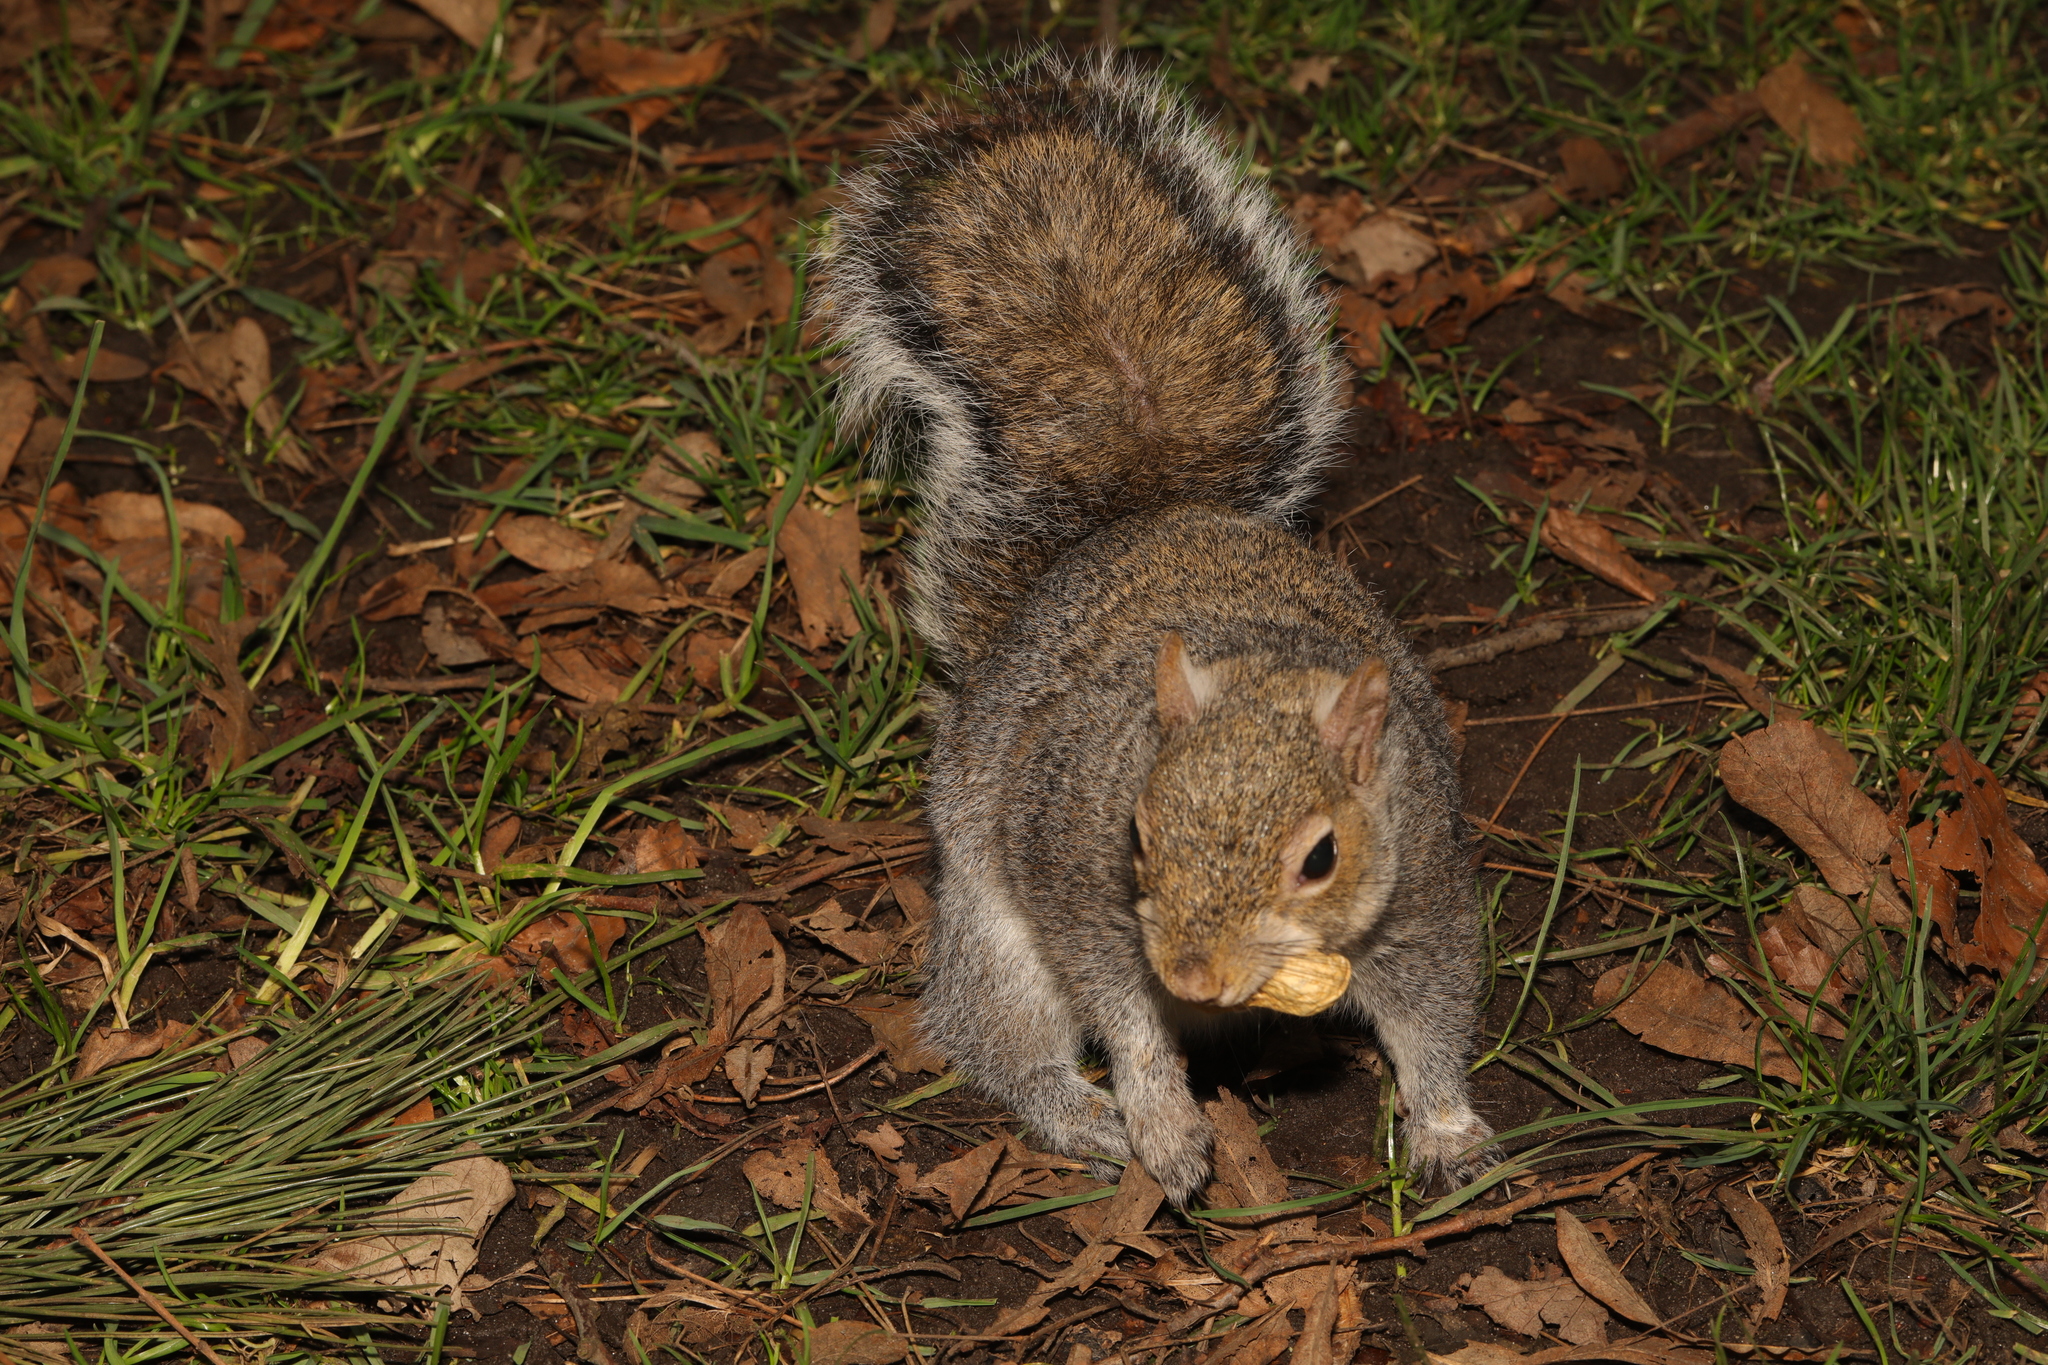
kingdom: Animalia
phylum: Chordata
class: Mammalia
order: Rodentia
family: Sciuridae
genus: Sciurus
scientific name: Sciurus carolinensis
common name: Eastern gray squirrel
